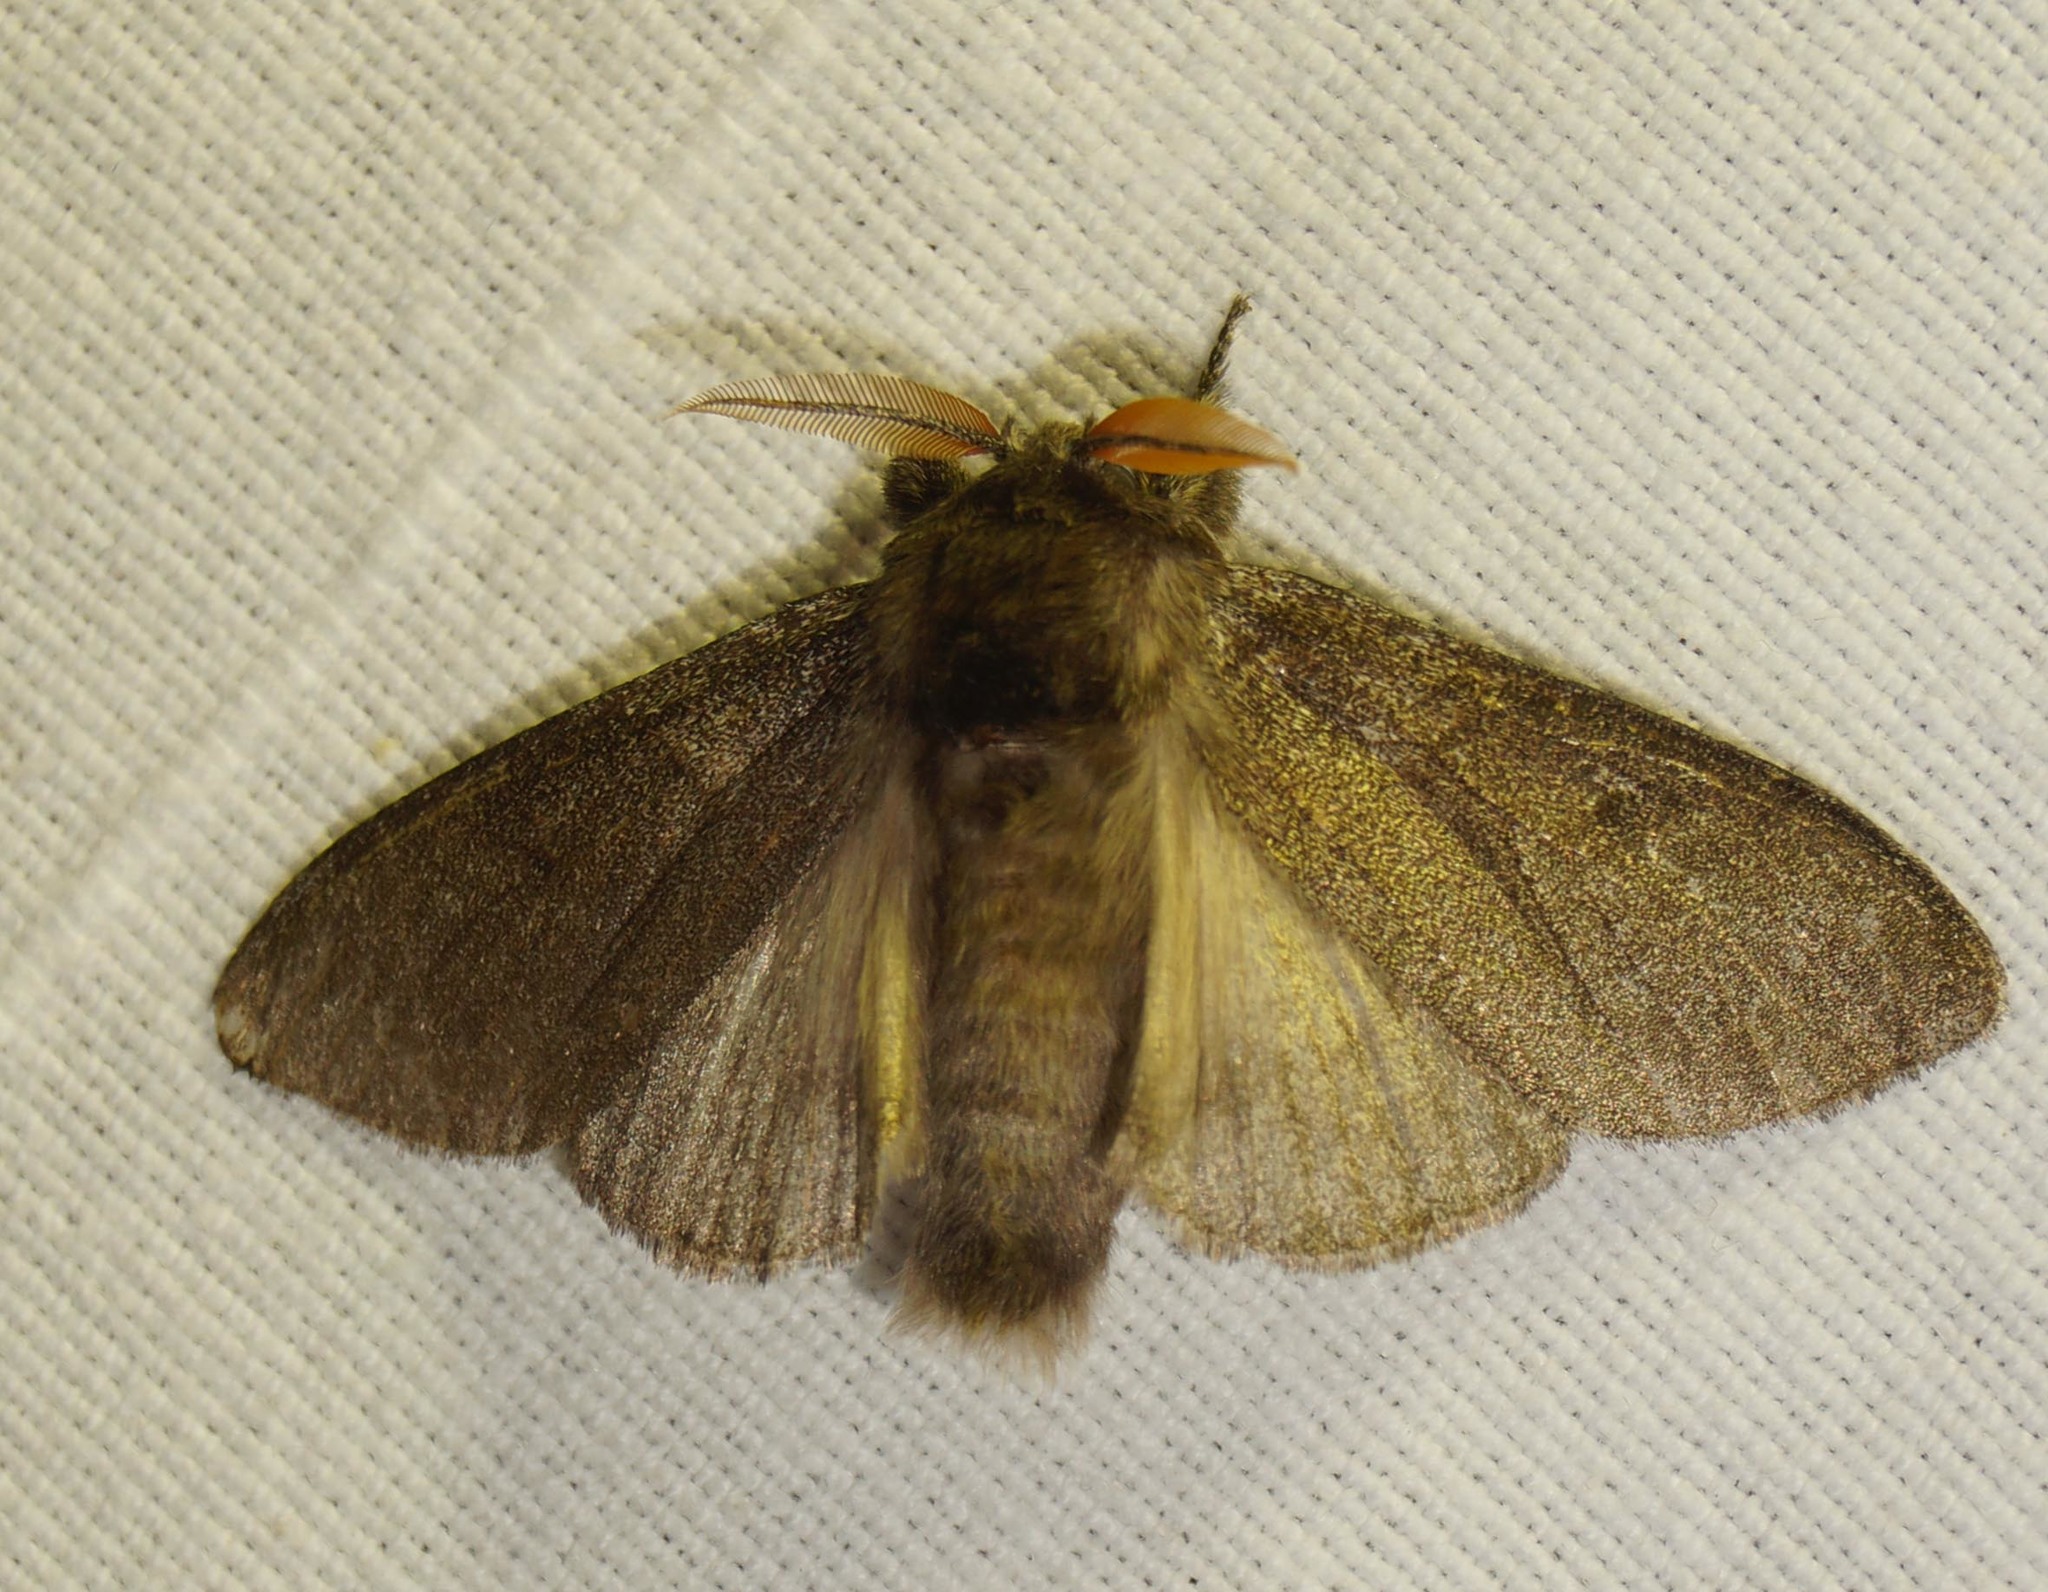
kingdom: Animalia
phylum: Arthropoda
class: Insecta
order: Lepidoptera
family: Erebidae
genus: Calliteara
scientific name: Calliteara pudibunda
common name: Pale tussock
